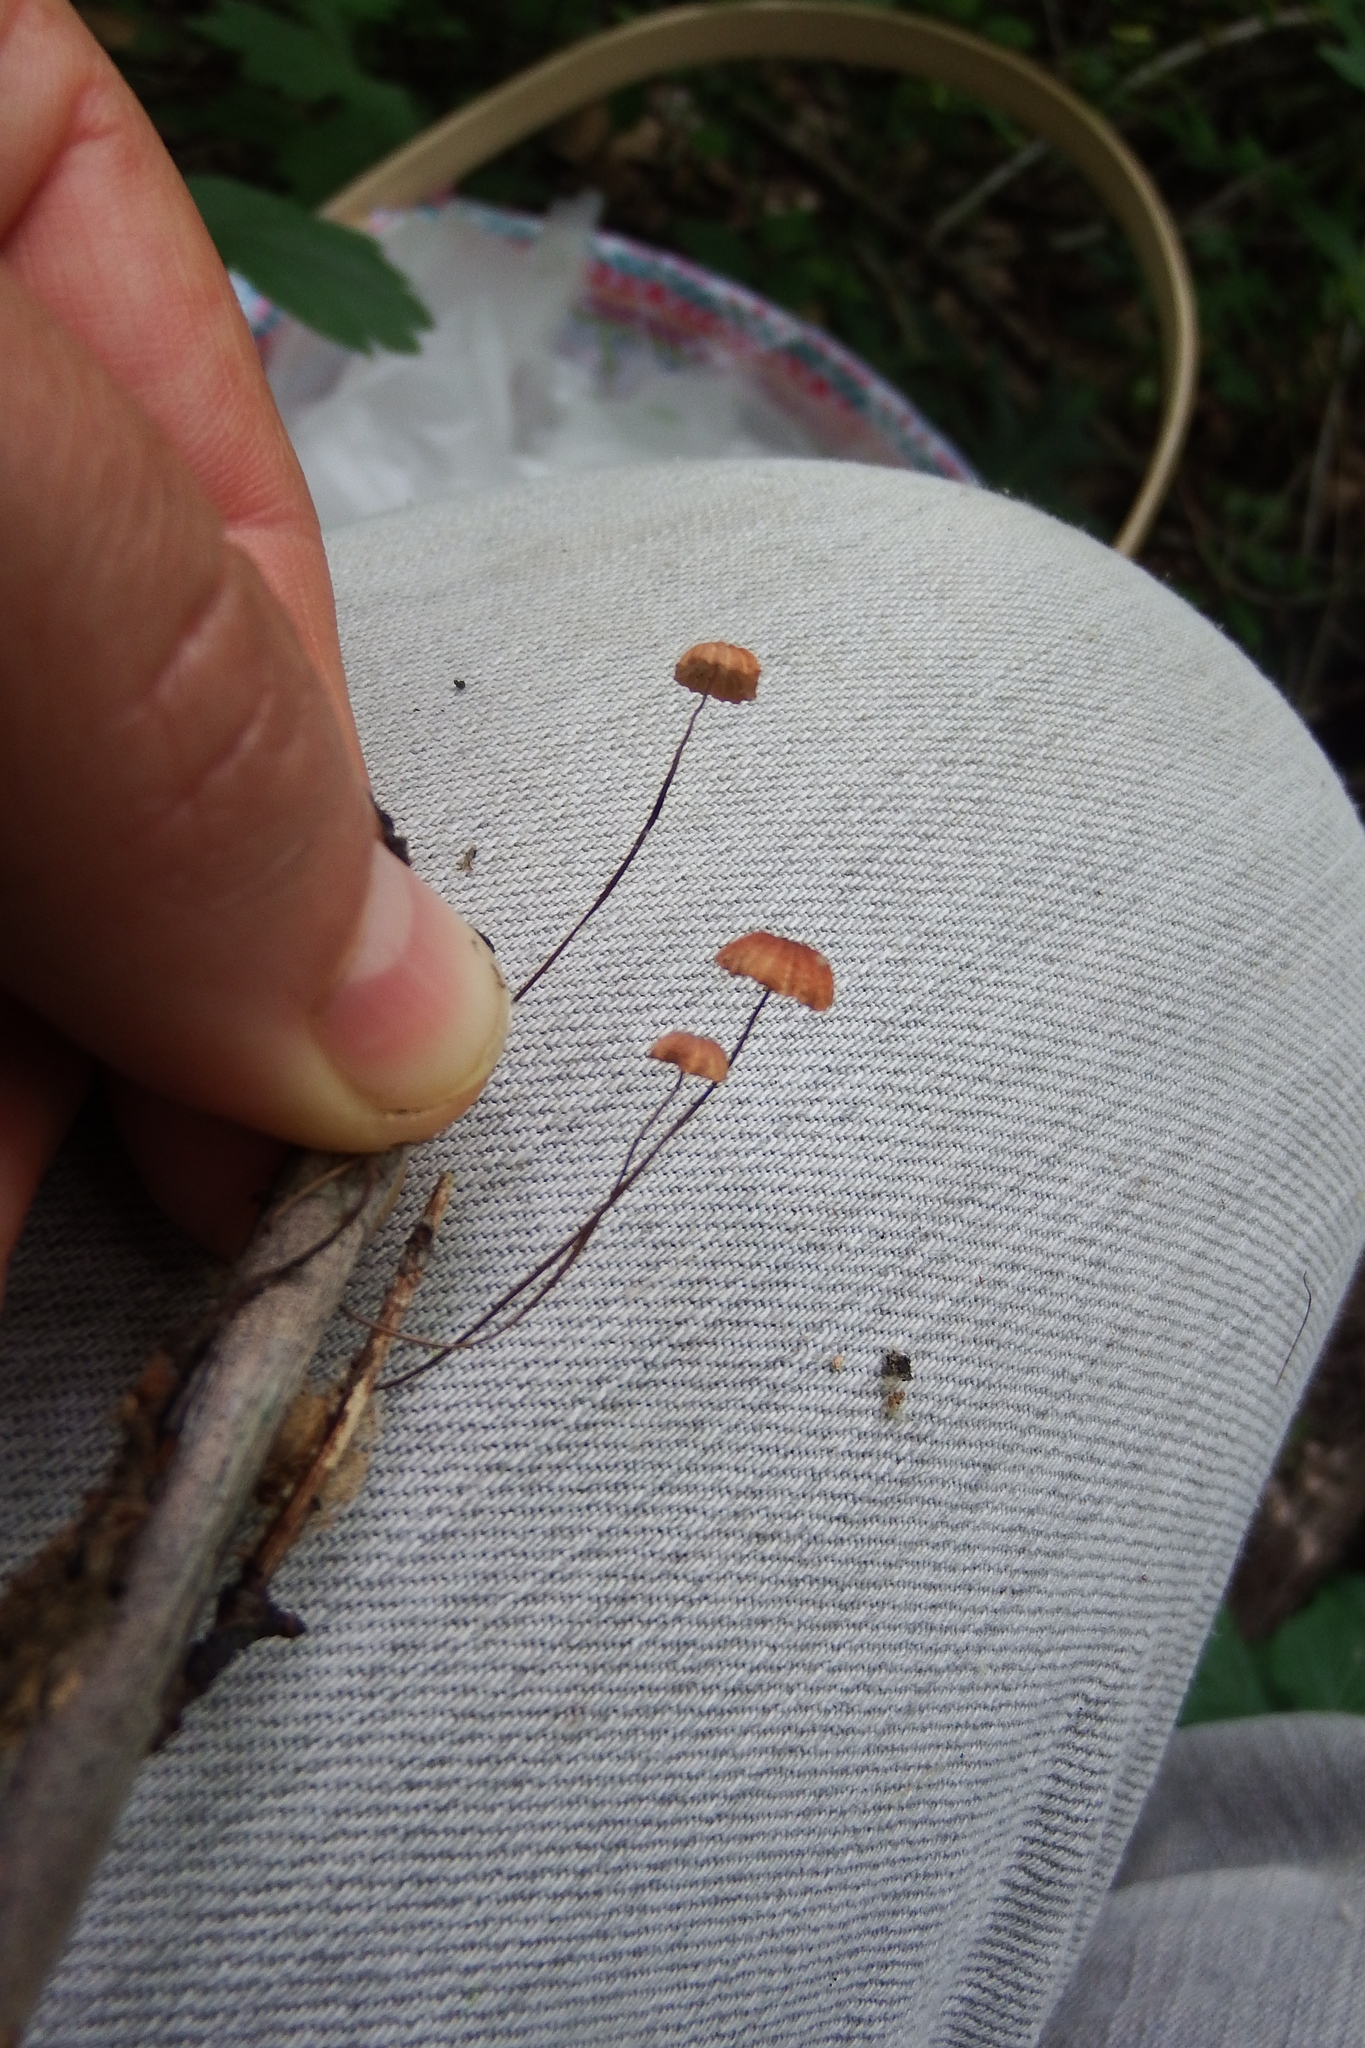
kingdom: Fungi
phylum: Basidiomycota
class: Agaricomycetes
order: Agaricales
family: Marasmiaceae
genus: Marasmius
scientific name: Marasmius siccus
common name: Orange pinwheel
